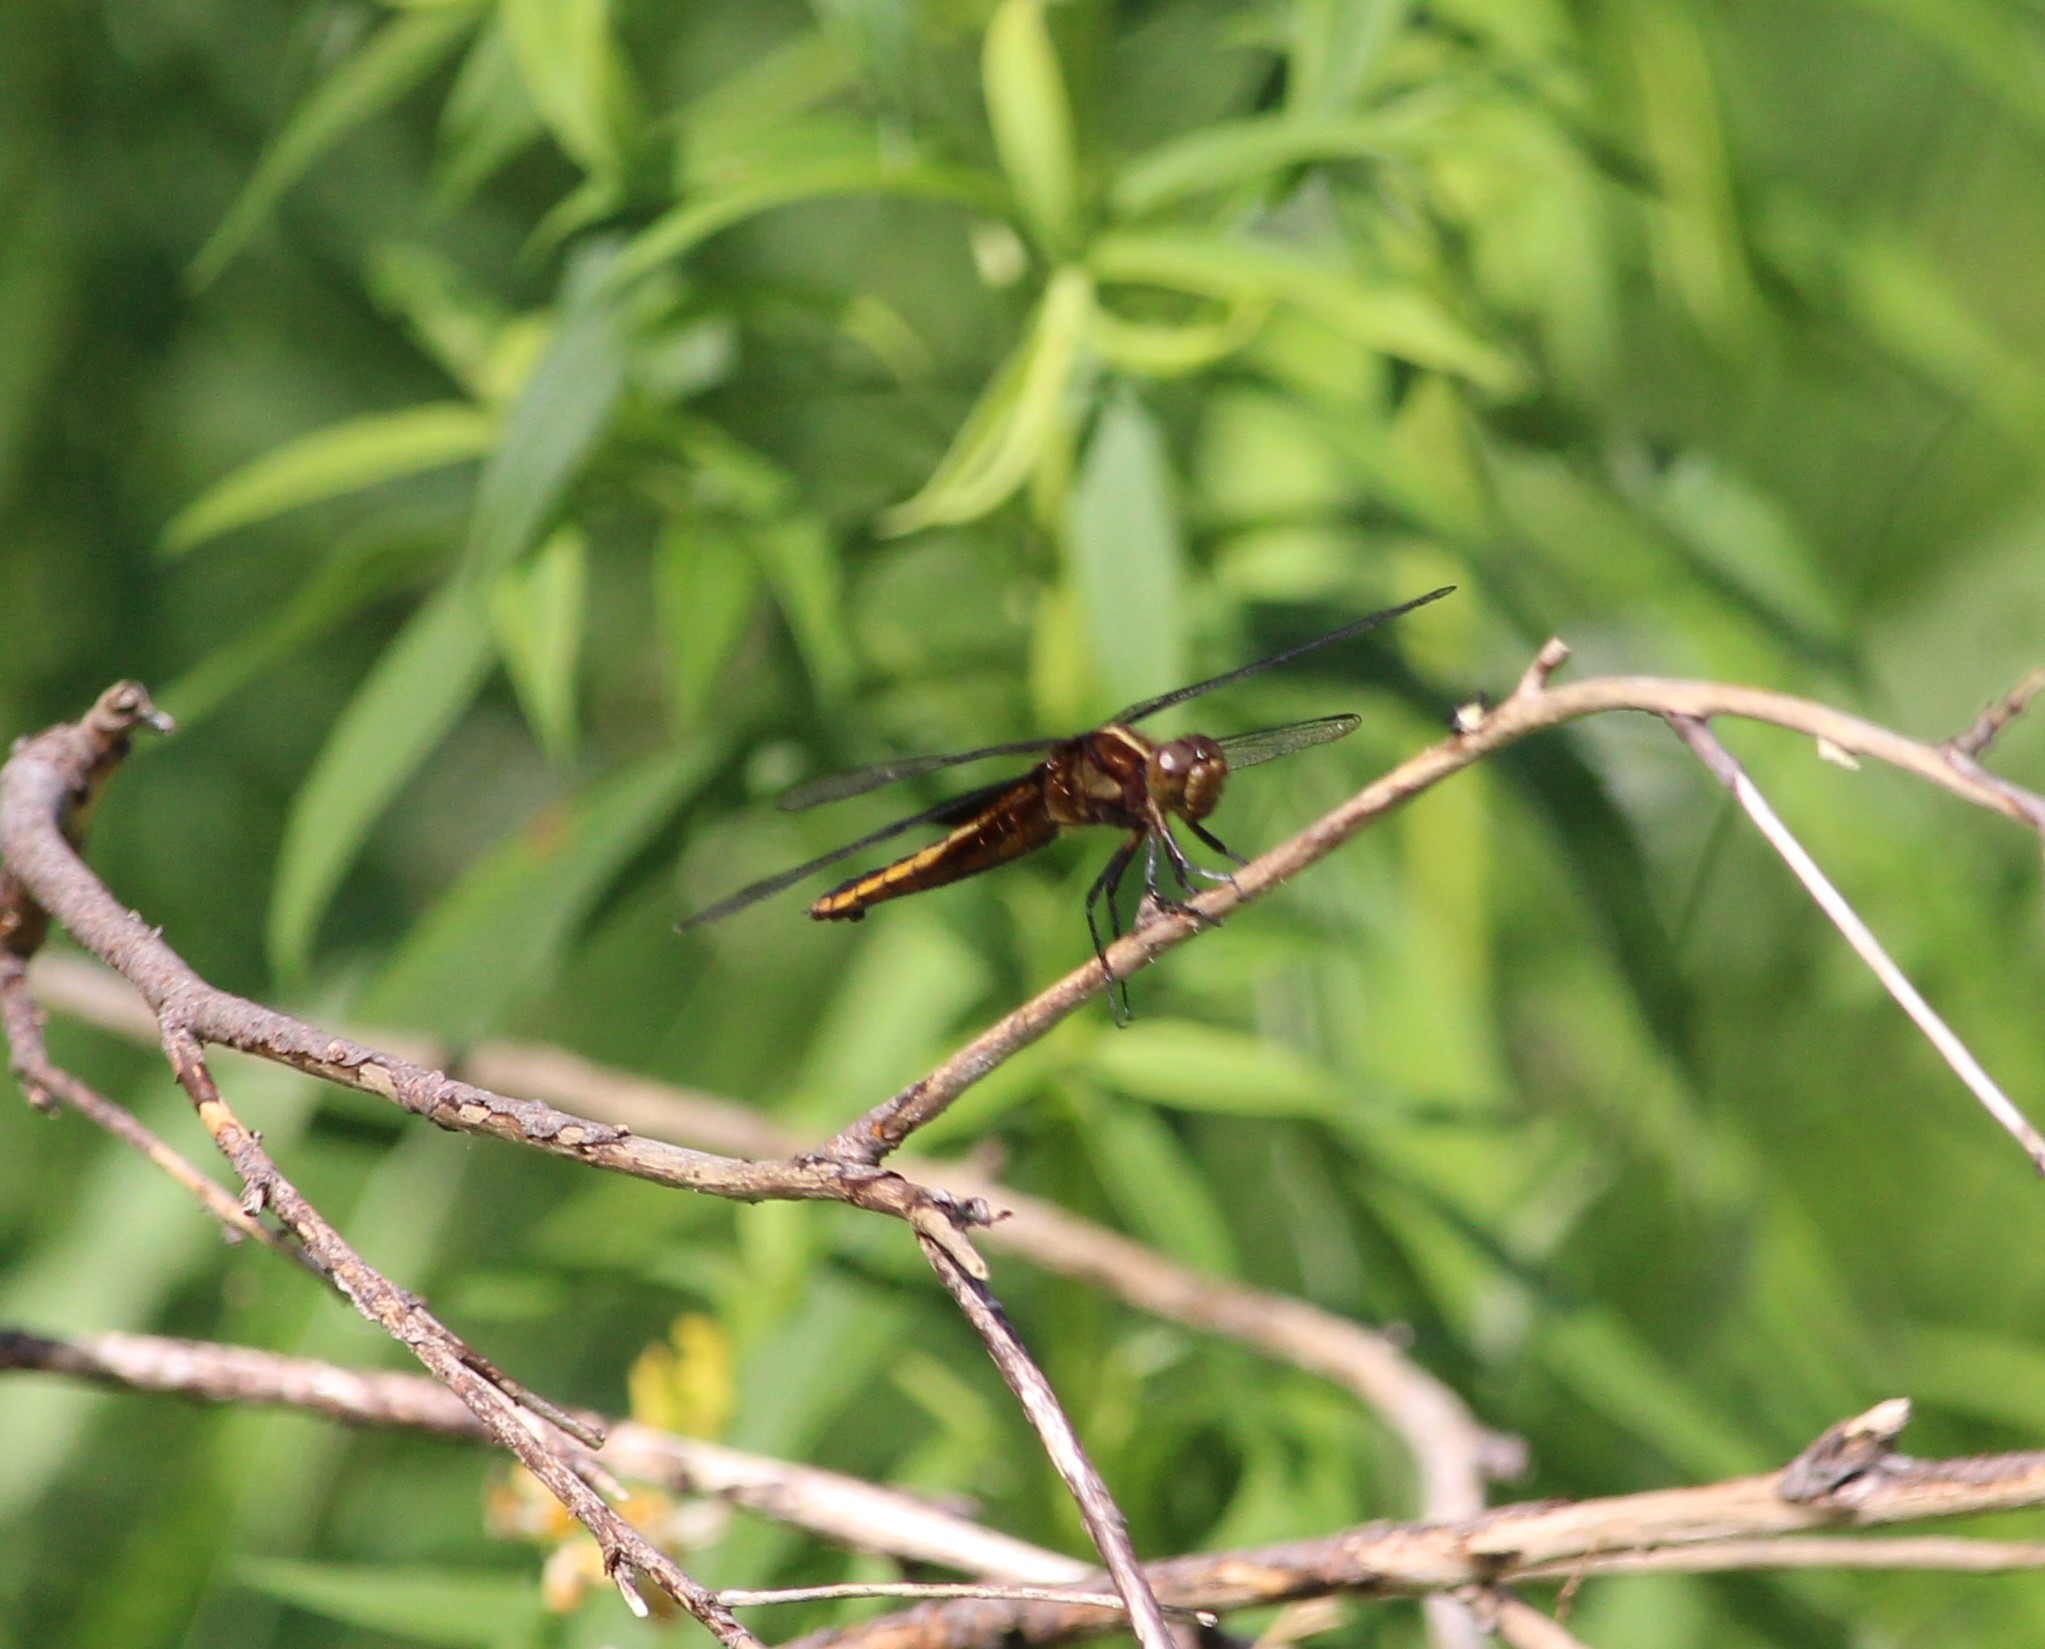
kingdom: Animalia
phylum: Arthropoda
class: Insecta
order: Odonata
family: Libellulidae
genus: Libellula
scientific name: Libellula luctuosa
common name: Widow skimmer
